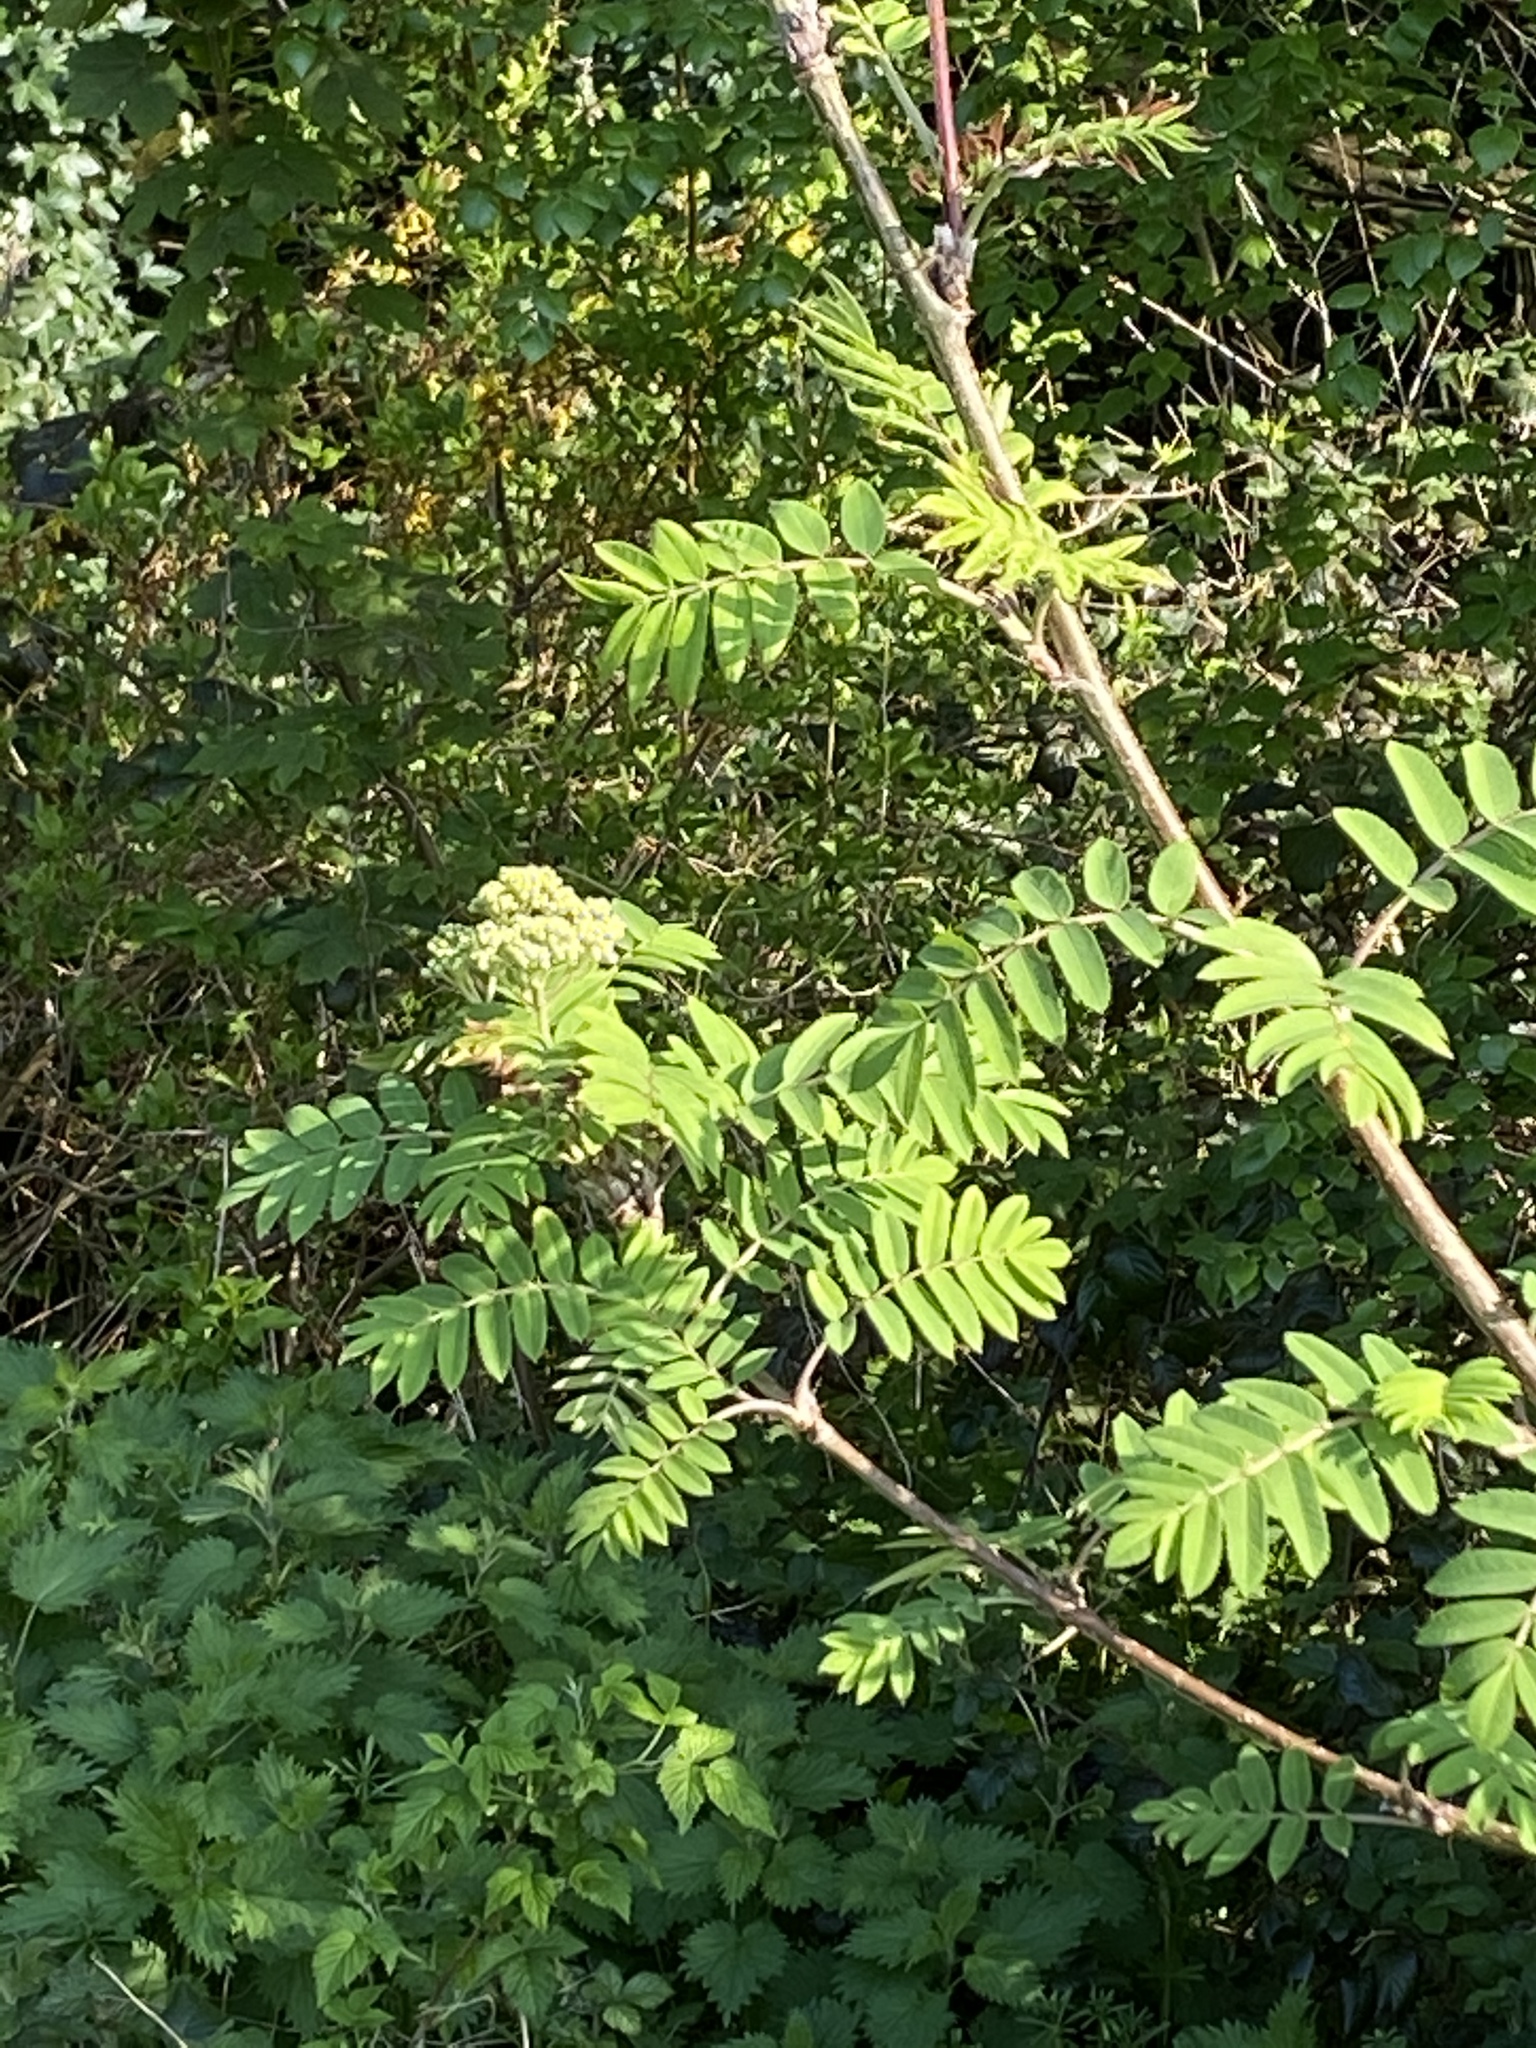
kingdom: Plantae
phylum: Tracheophyta
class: Magnoliopsida
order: Rosales
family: Rosaceae
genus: Sorbus
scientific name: Sorbus aucuparia
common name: Rowan
